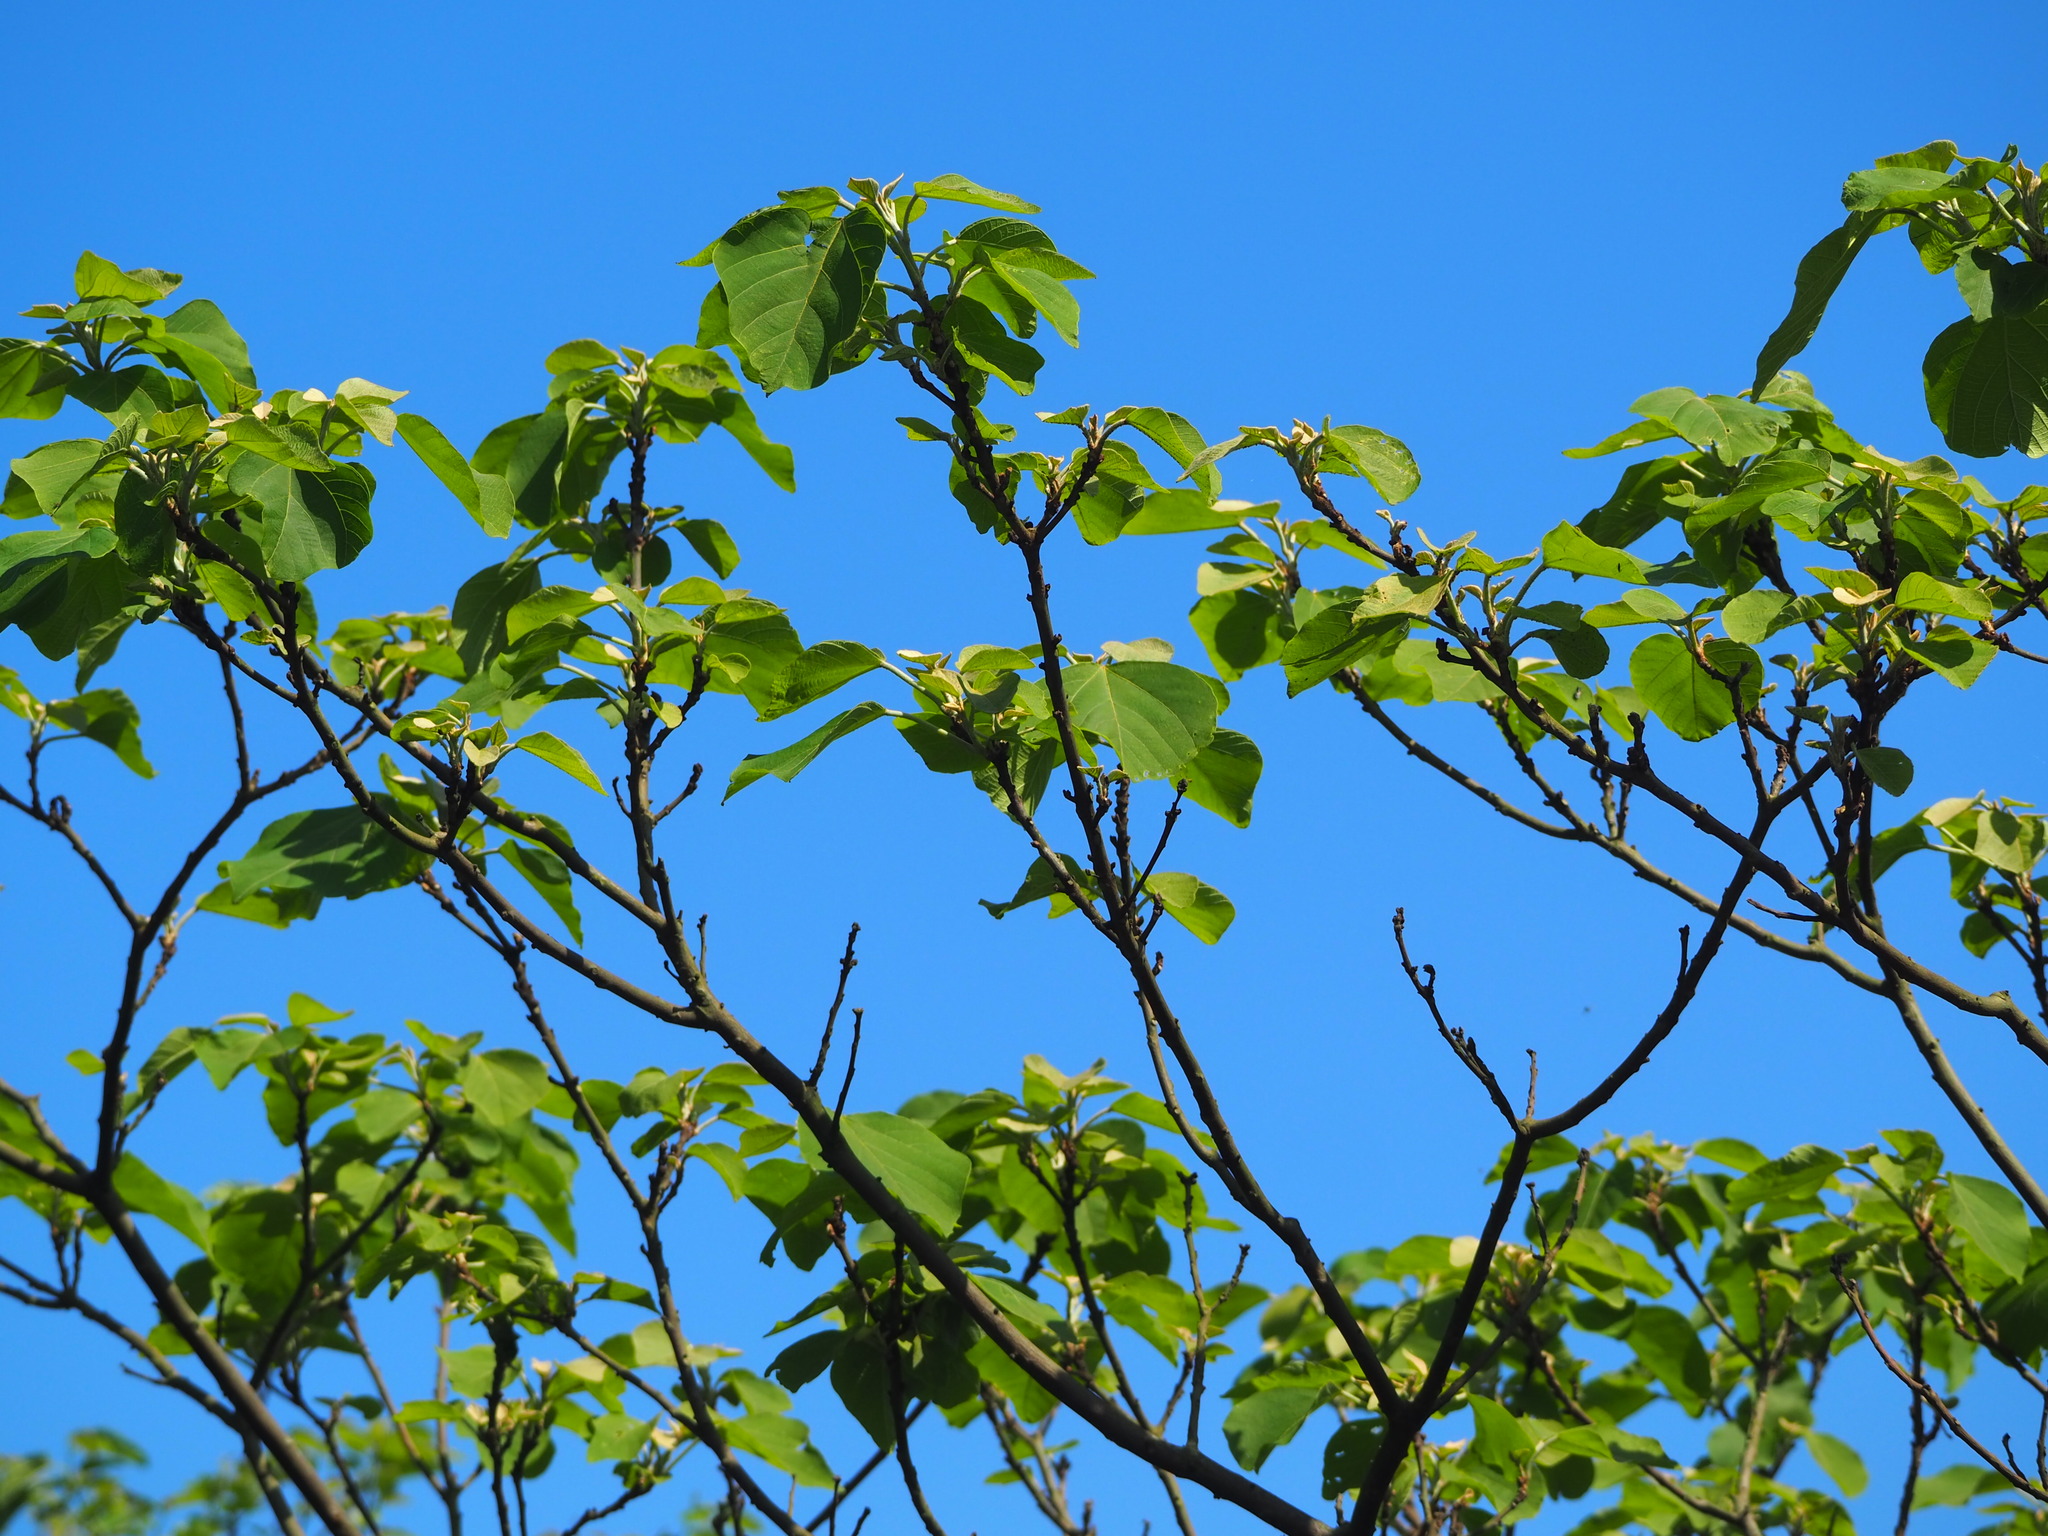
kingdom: Plantae
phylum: Tracheophyta
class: Magnoliopsida
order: Malpighiales
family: Euphorbiaceae
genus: Mallotus
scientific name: Mallotus japonicus
